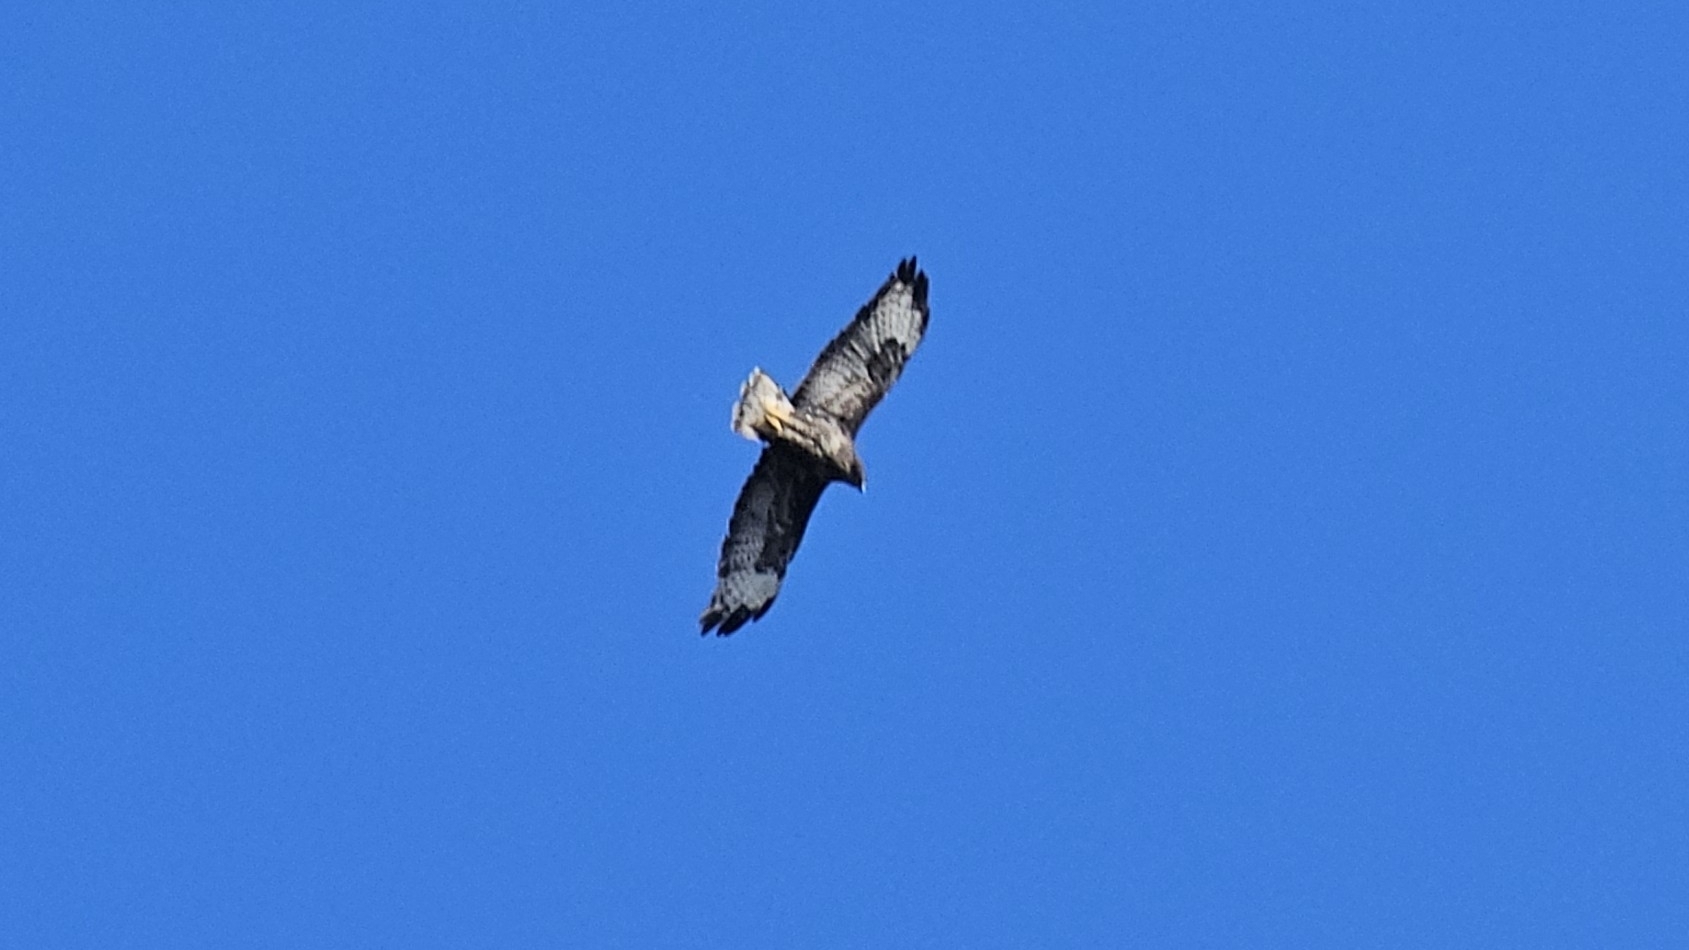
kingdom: Animalia
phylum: Chordata
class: Aves
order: Accipitriformes
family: Accipitridae
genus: Buteo
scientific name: Buteo buteo
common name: Common buzzard
